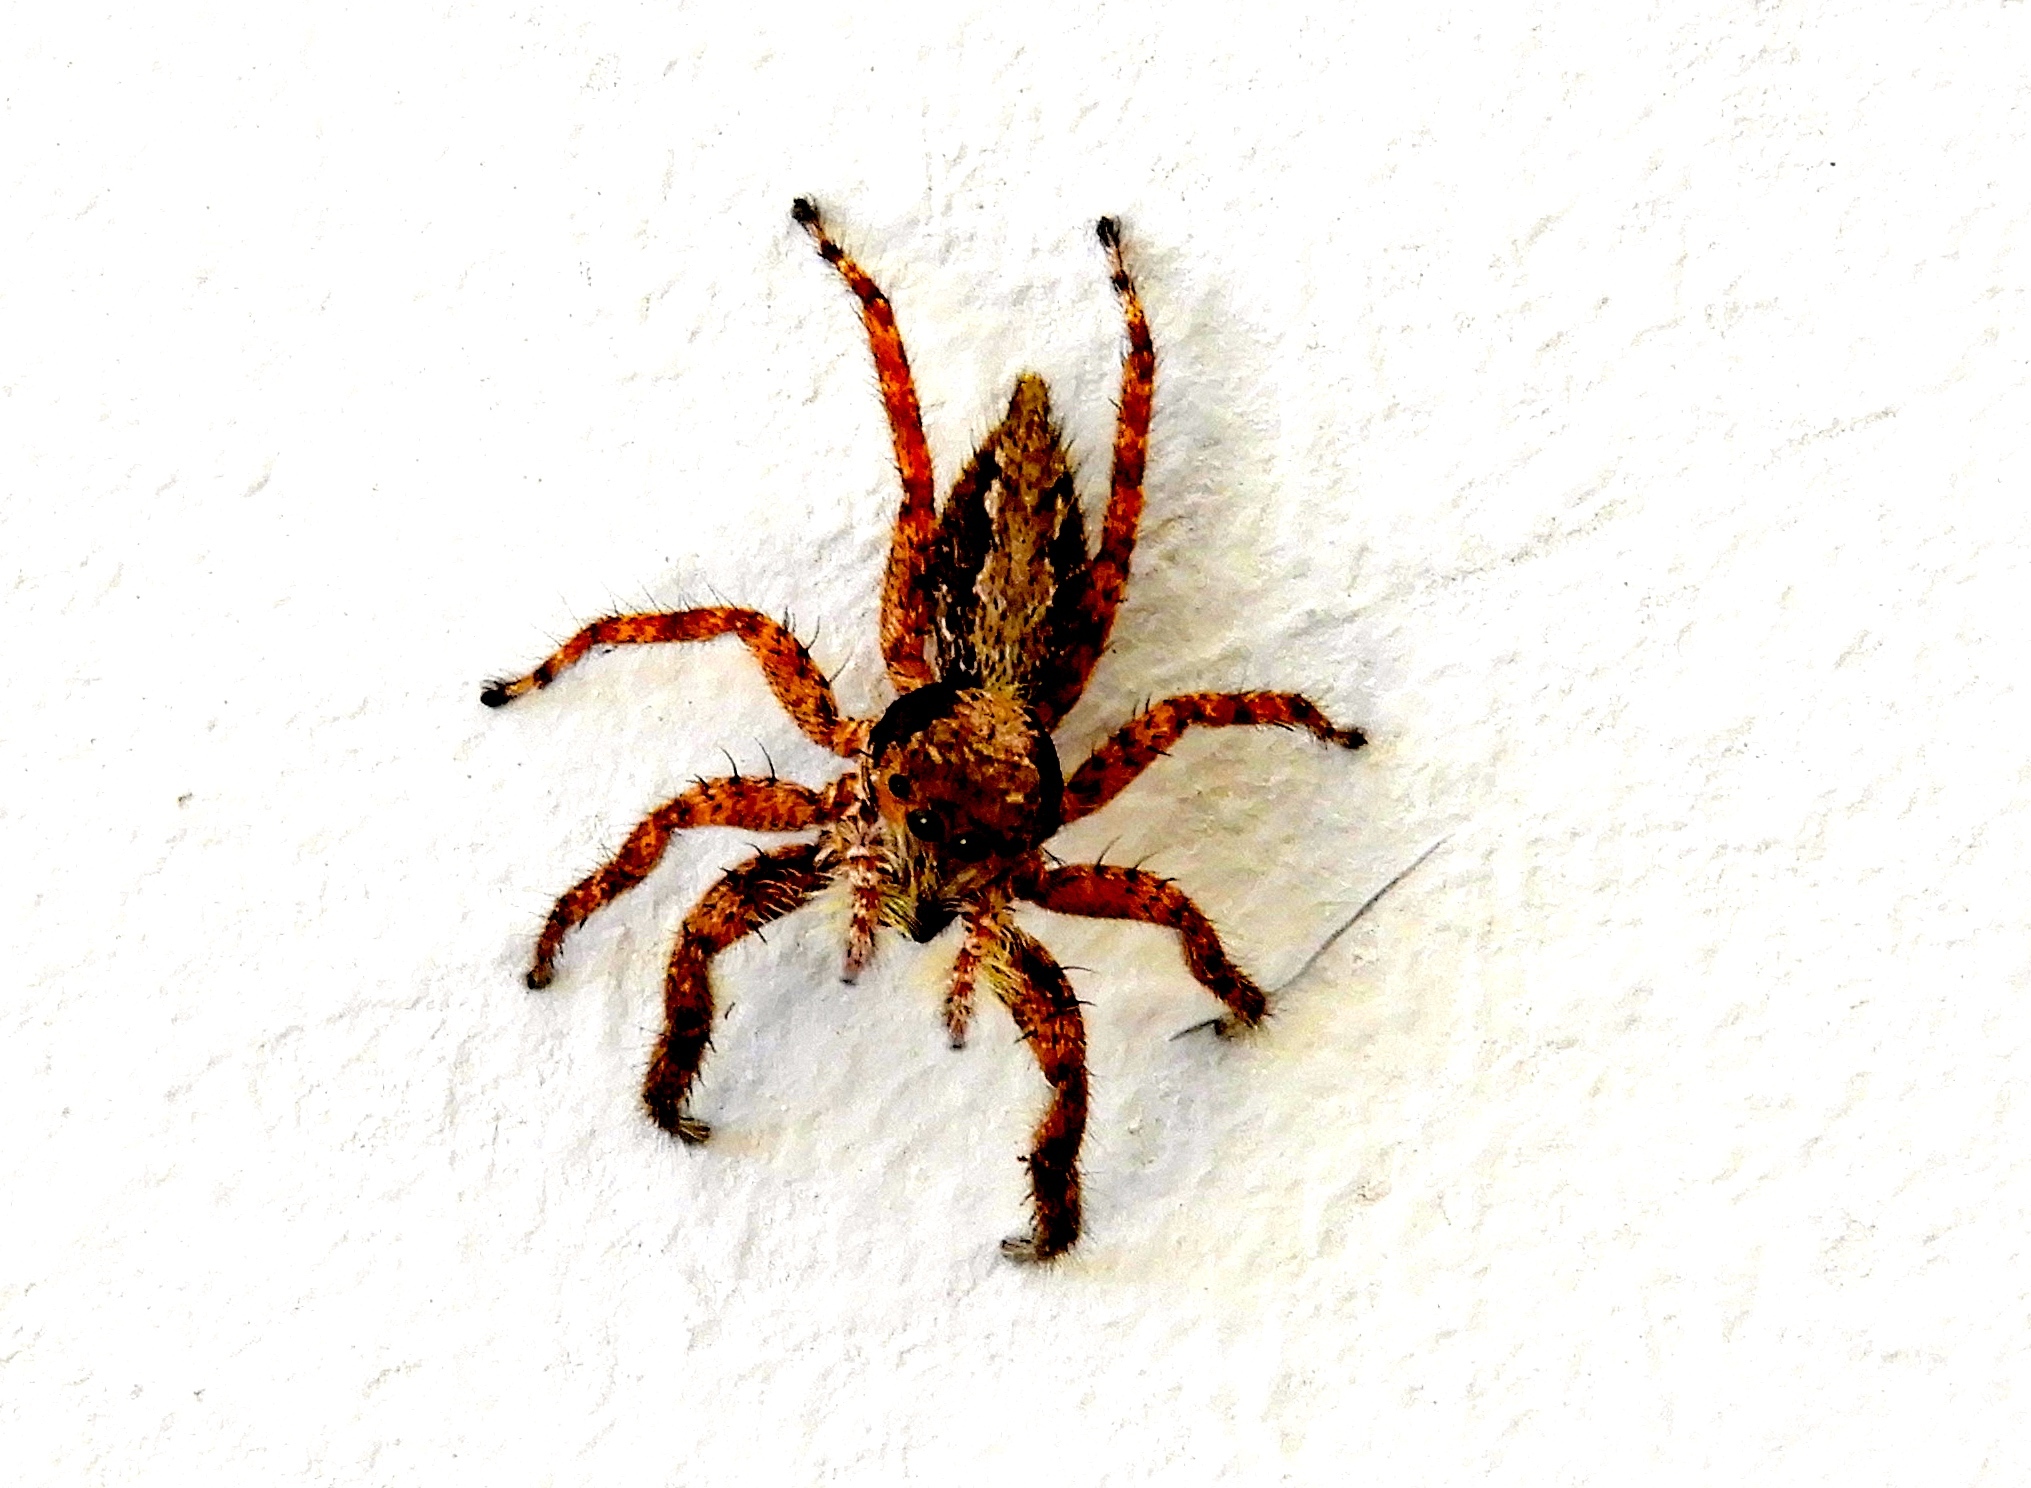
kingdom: Animalia
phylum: Arthropoda
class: Arachnida
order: Araneae
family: Salticidae
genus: Balmaceda
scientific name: Balmaceda
